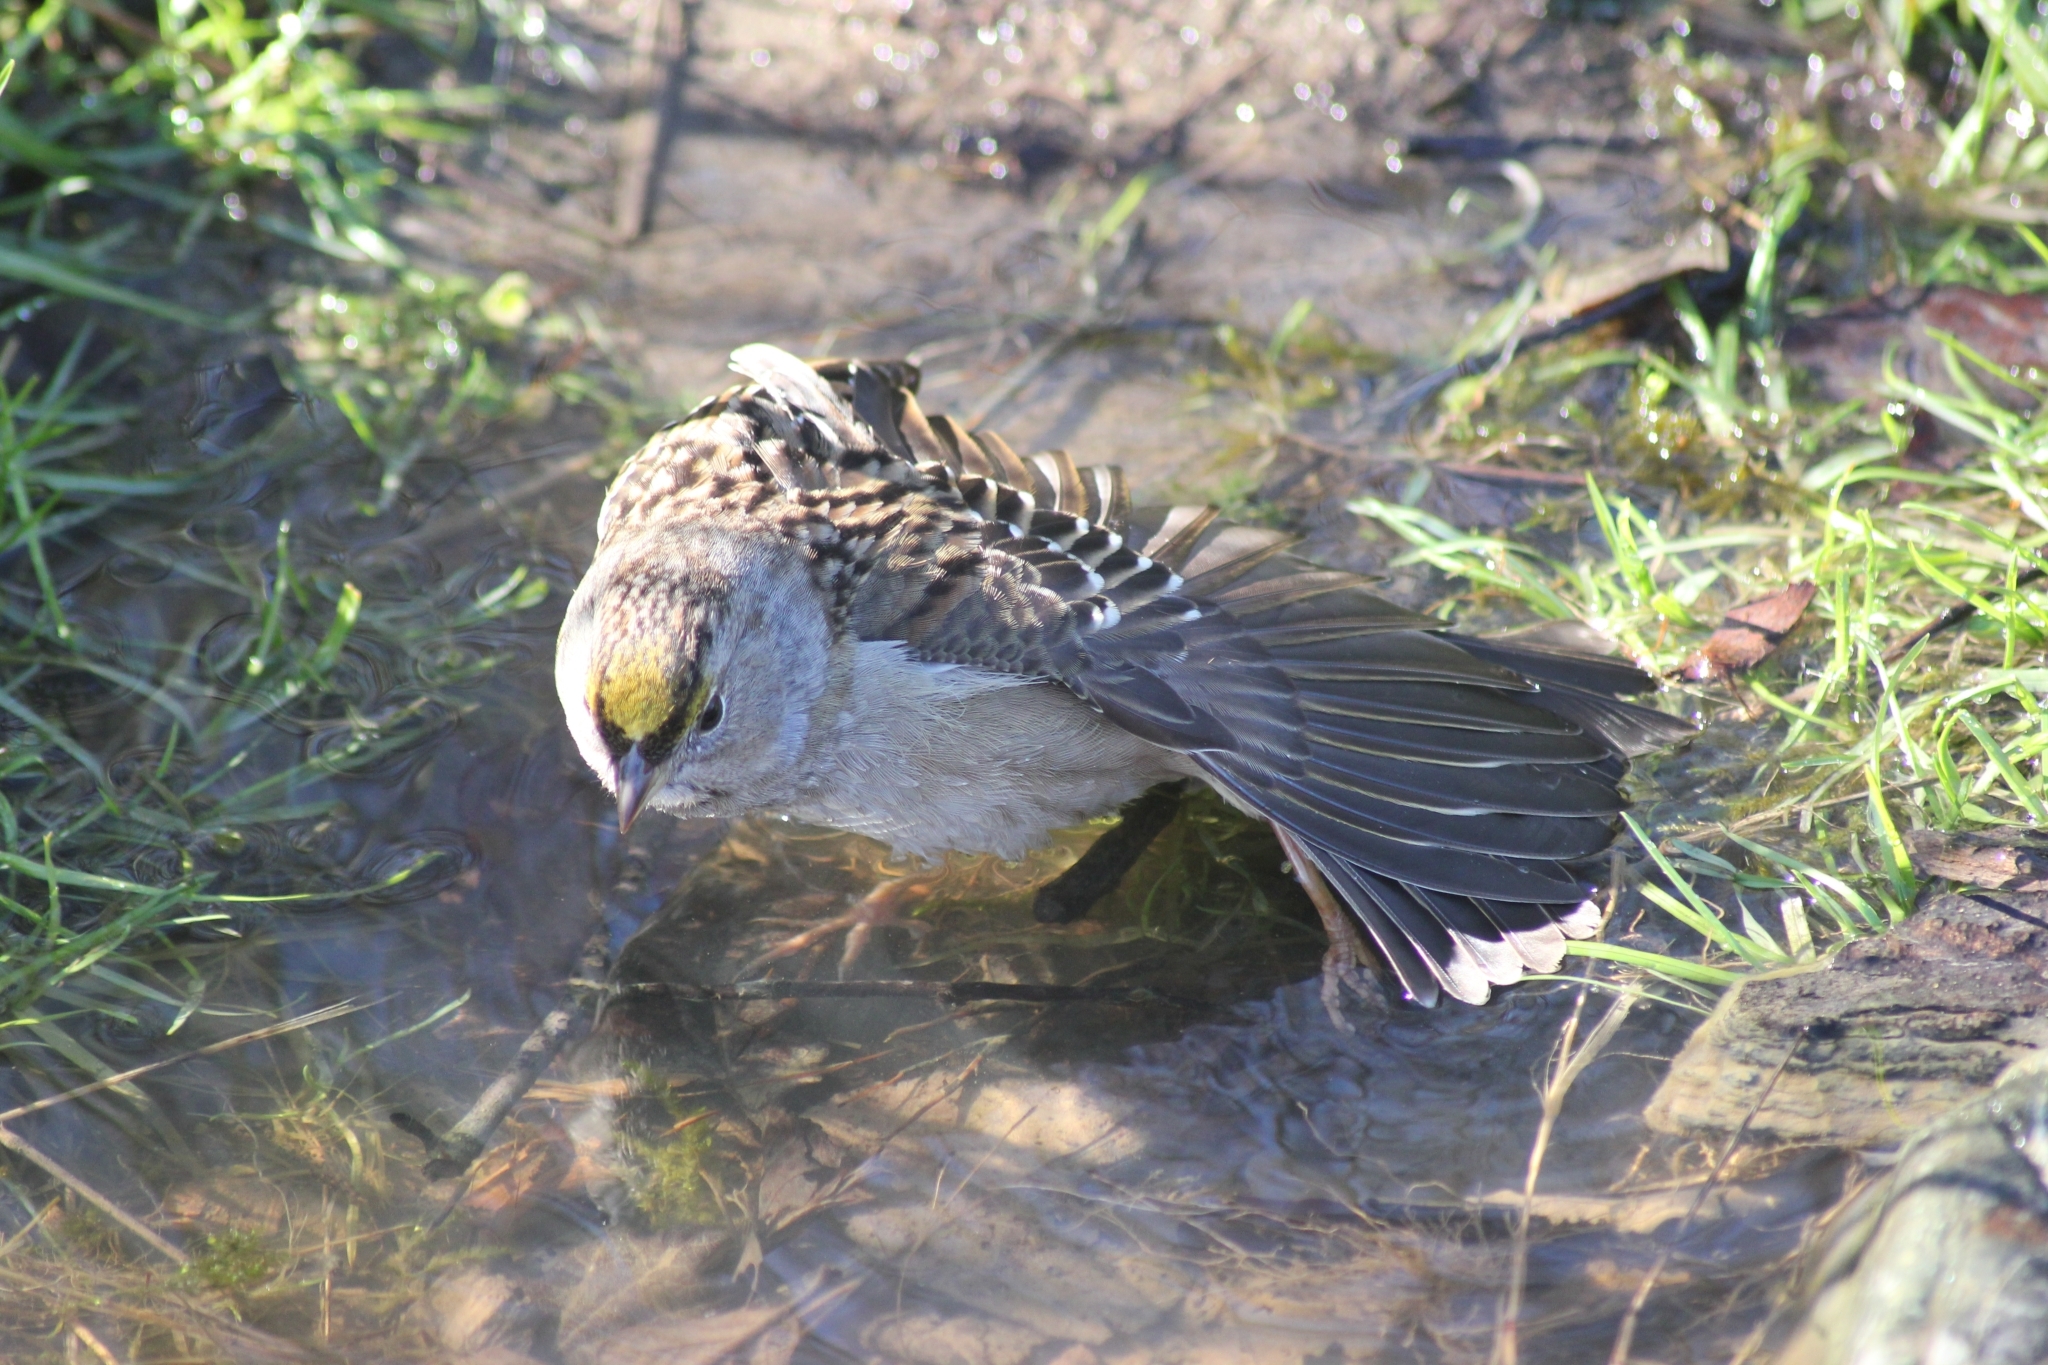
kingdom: Animalia
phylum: Chordata
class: Aves
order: Passeriformes
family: Passerellidae
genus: Zonotrichia
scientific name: Zonotrichia atricapilla
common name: Golden-crowned sparrow
